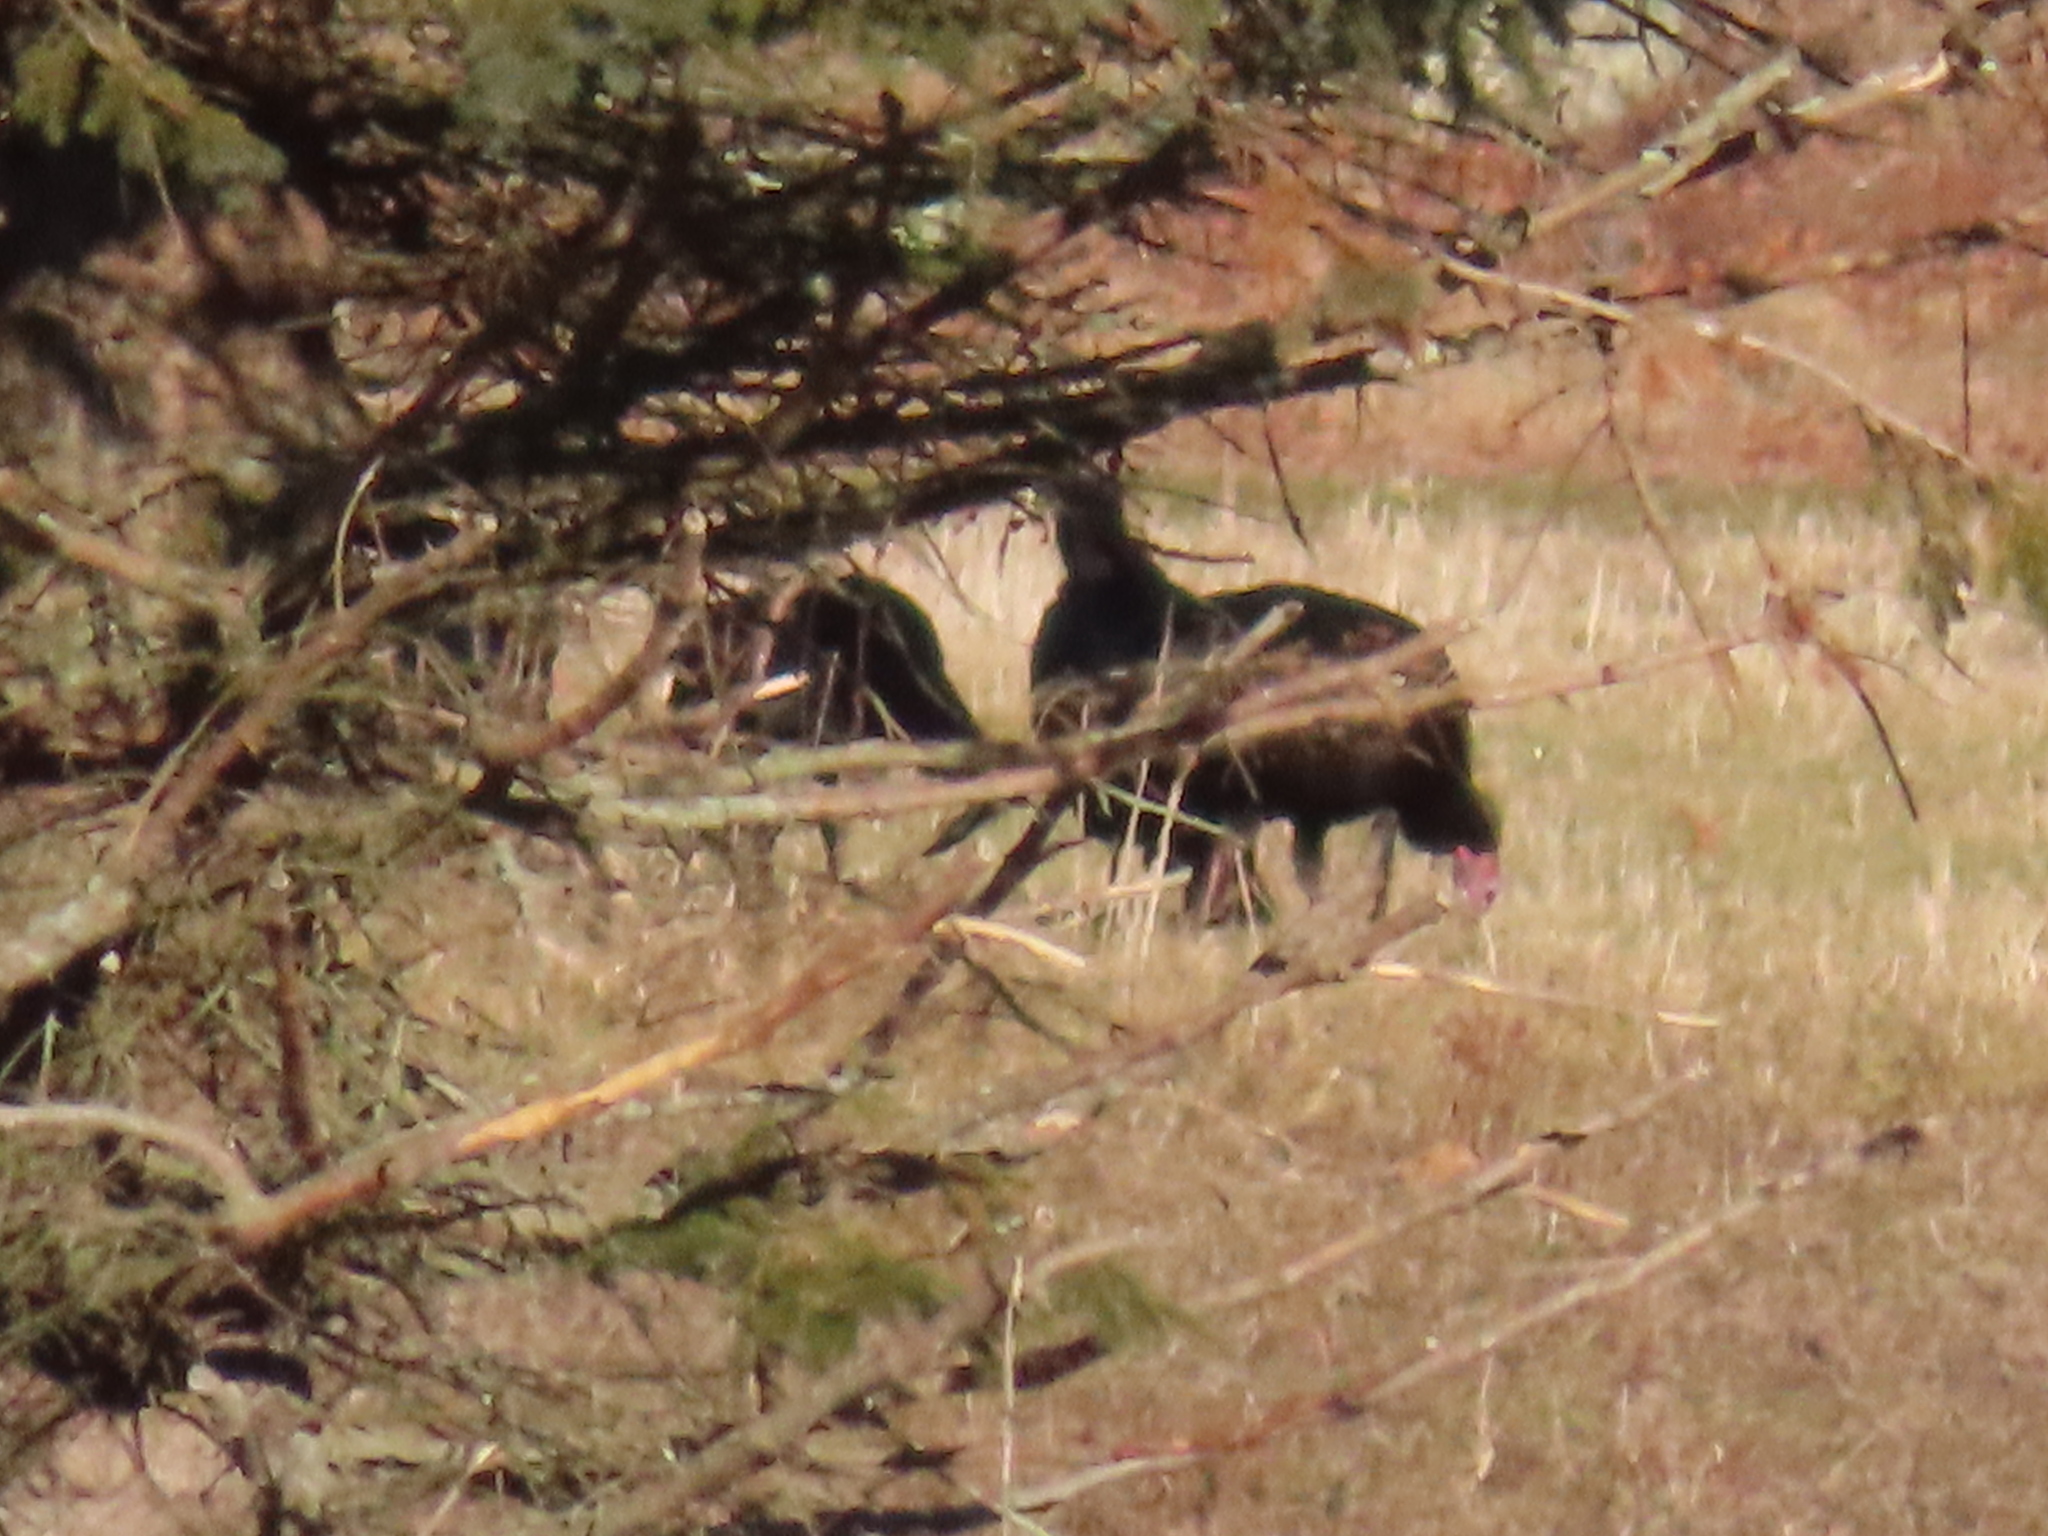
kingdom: Animalia
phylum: Chordata
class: Aves
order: Galliformes
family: Phasianidae
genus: Meleagris
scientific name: Meleagris gallopavo
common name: Wild turkey
